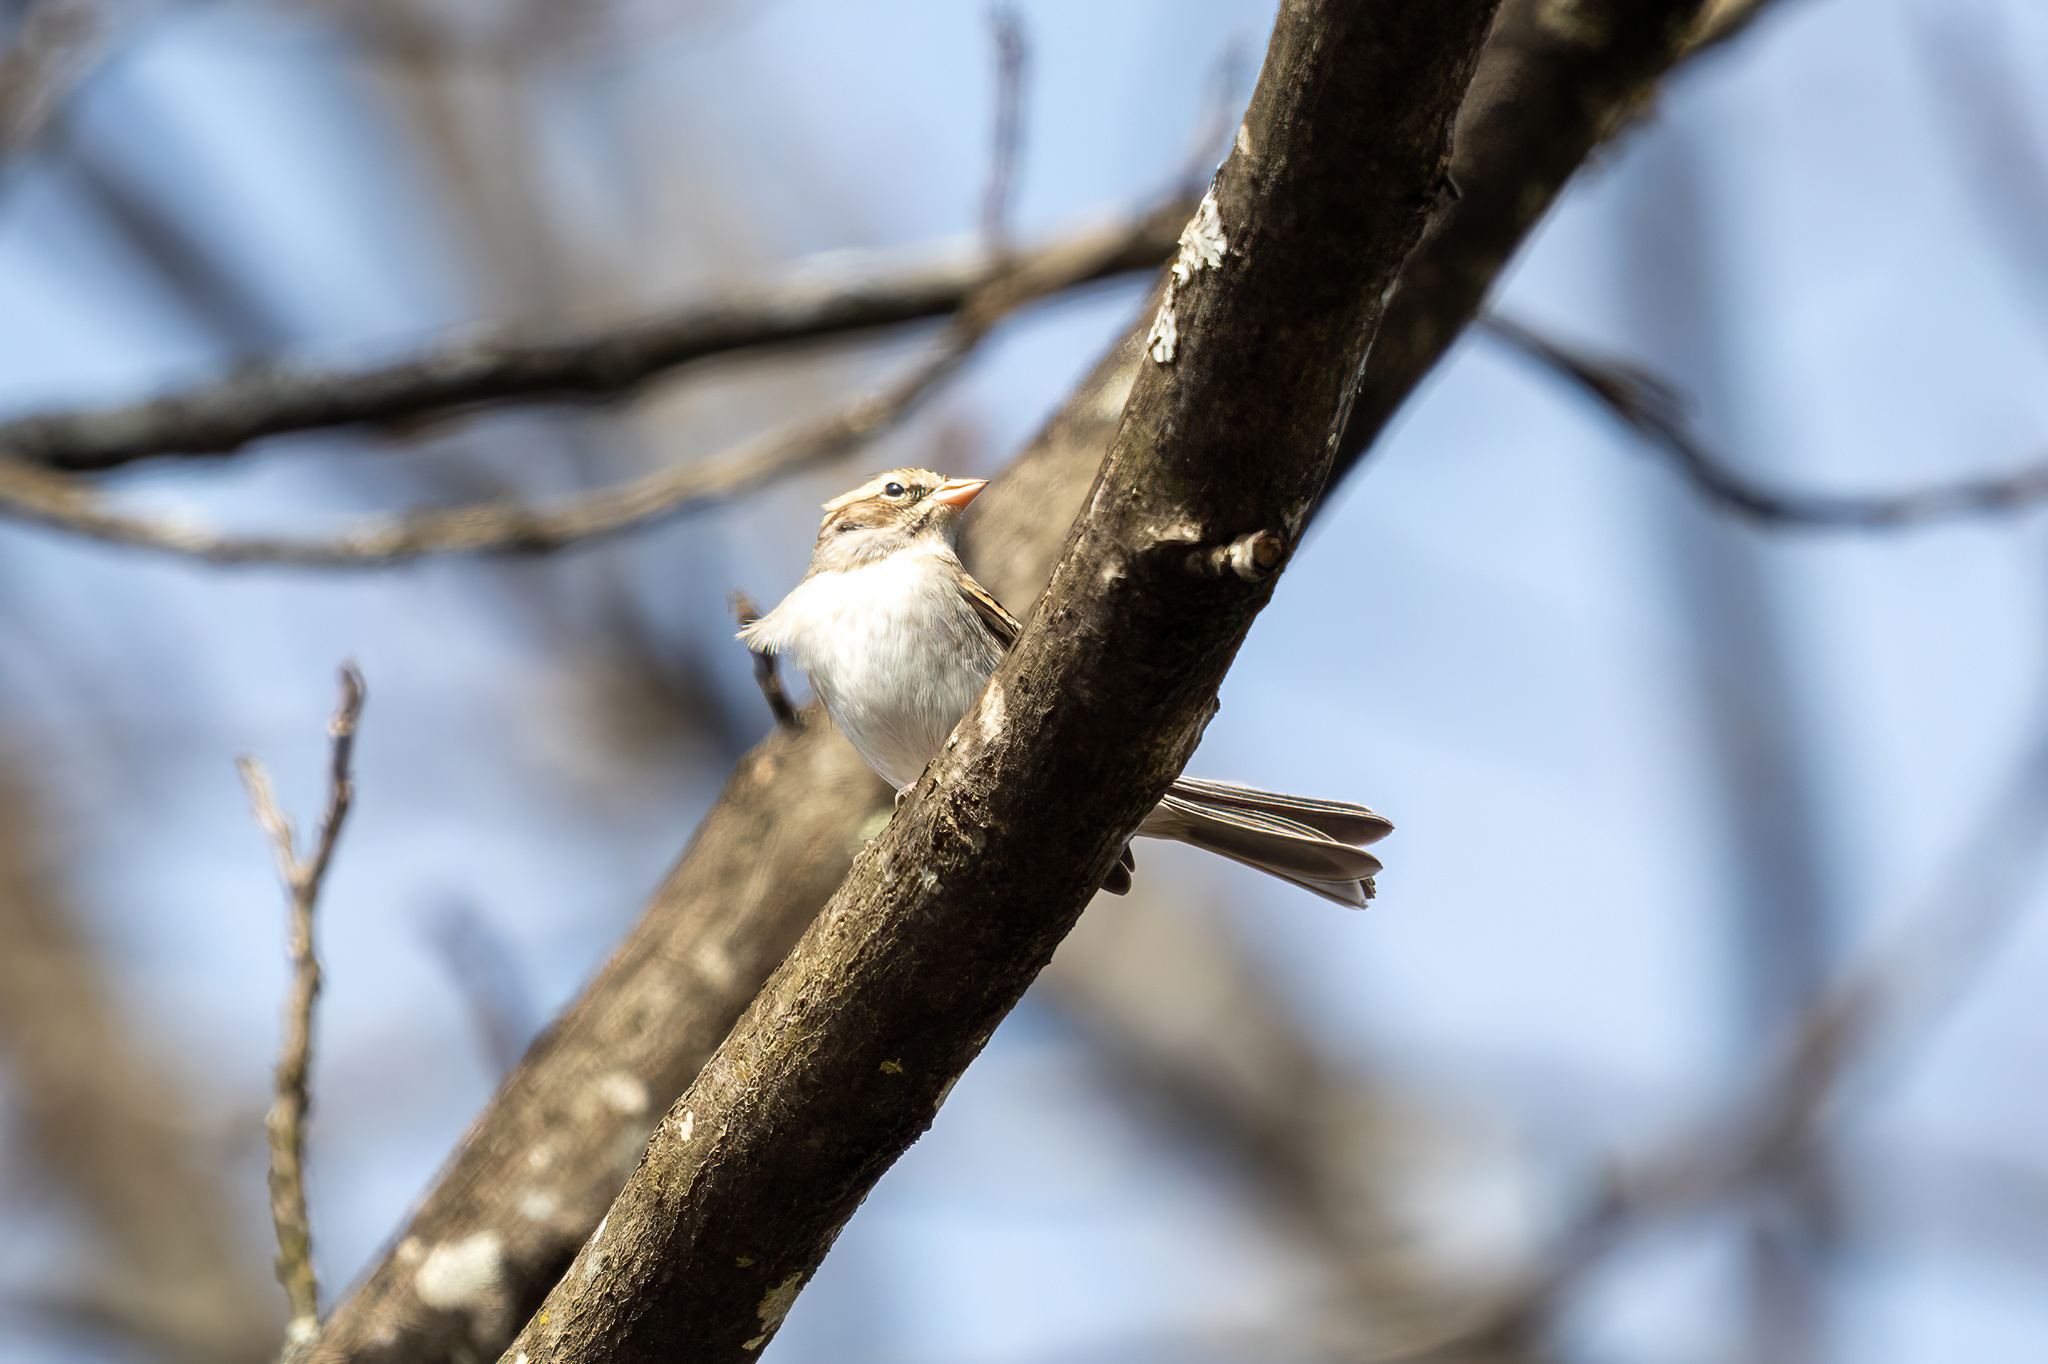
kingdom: Animalia
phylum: Chordata
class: Aves
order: Passeriformes
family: Passerellidae
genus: Spizella
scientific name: Spizella passerina
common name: Chipping sparrow
